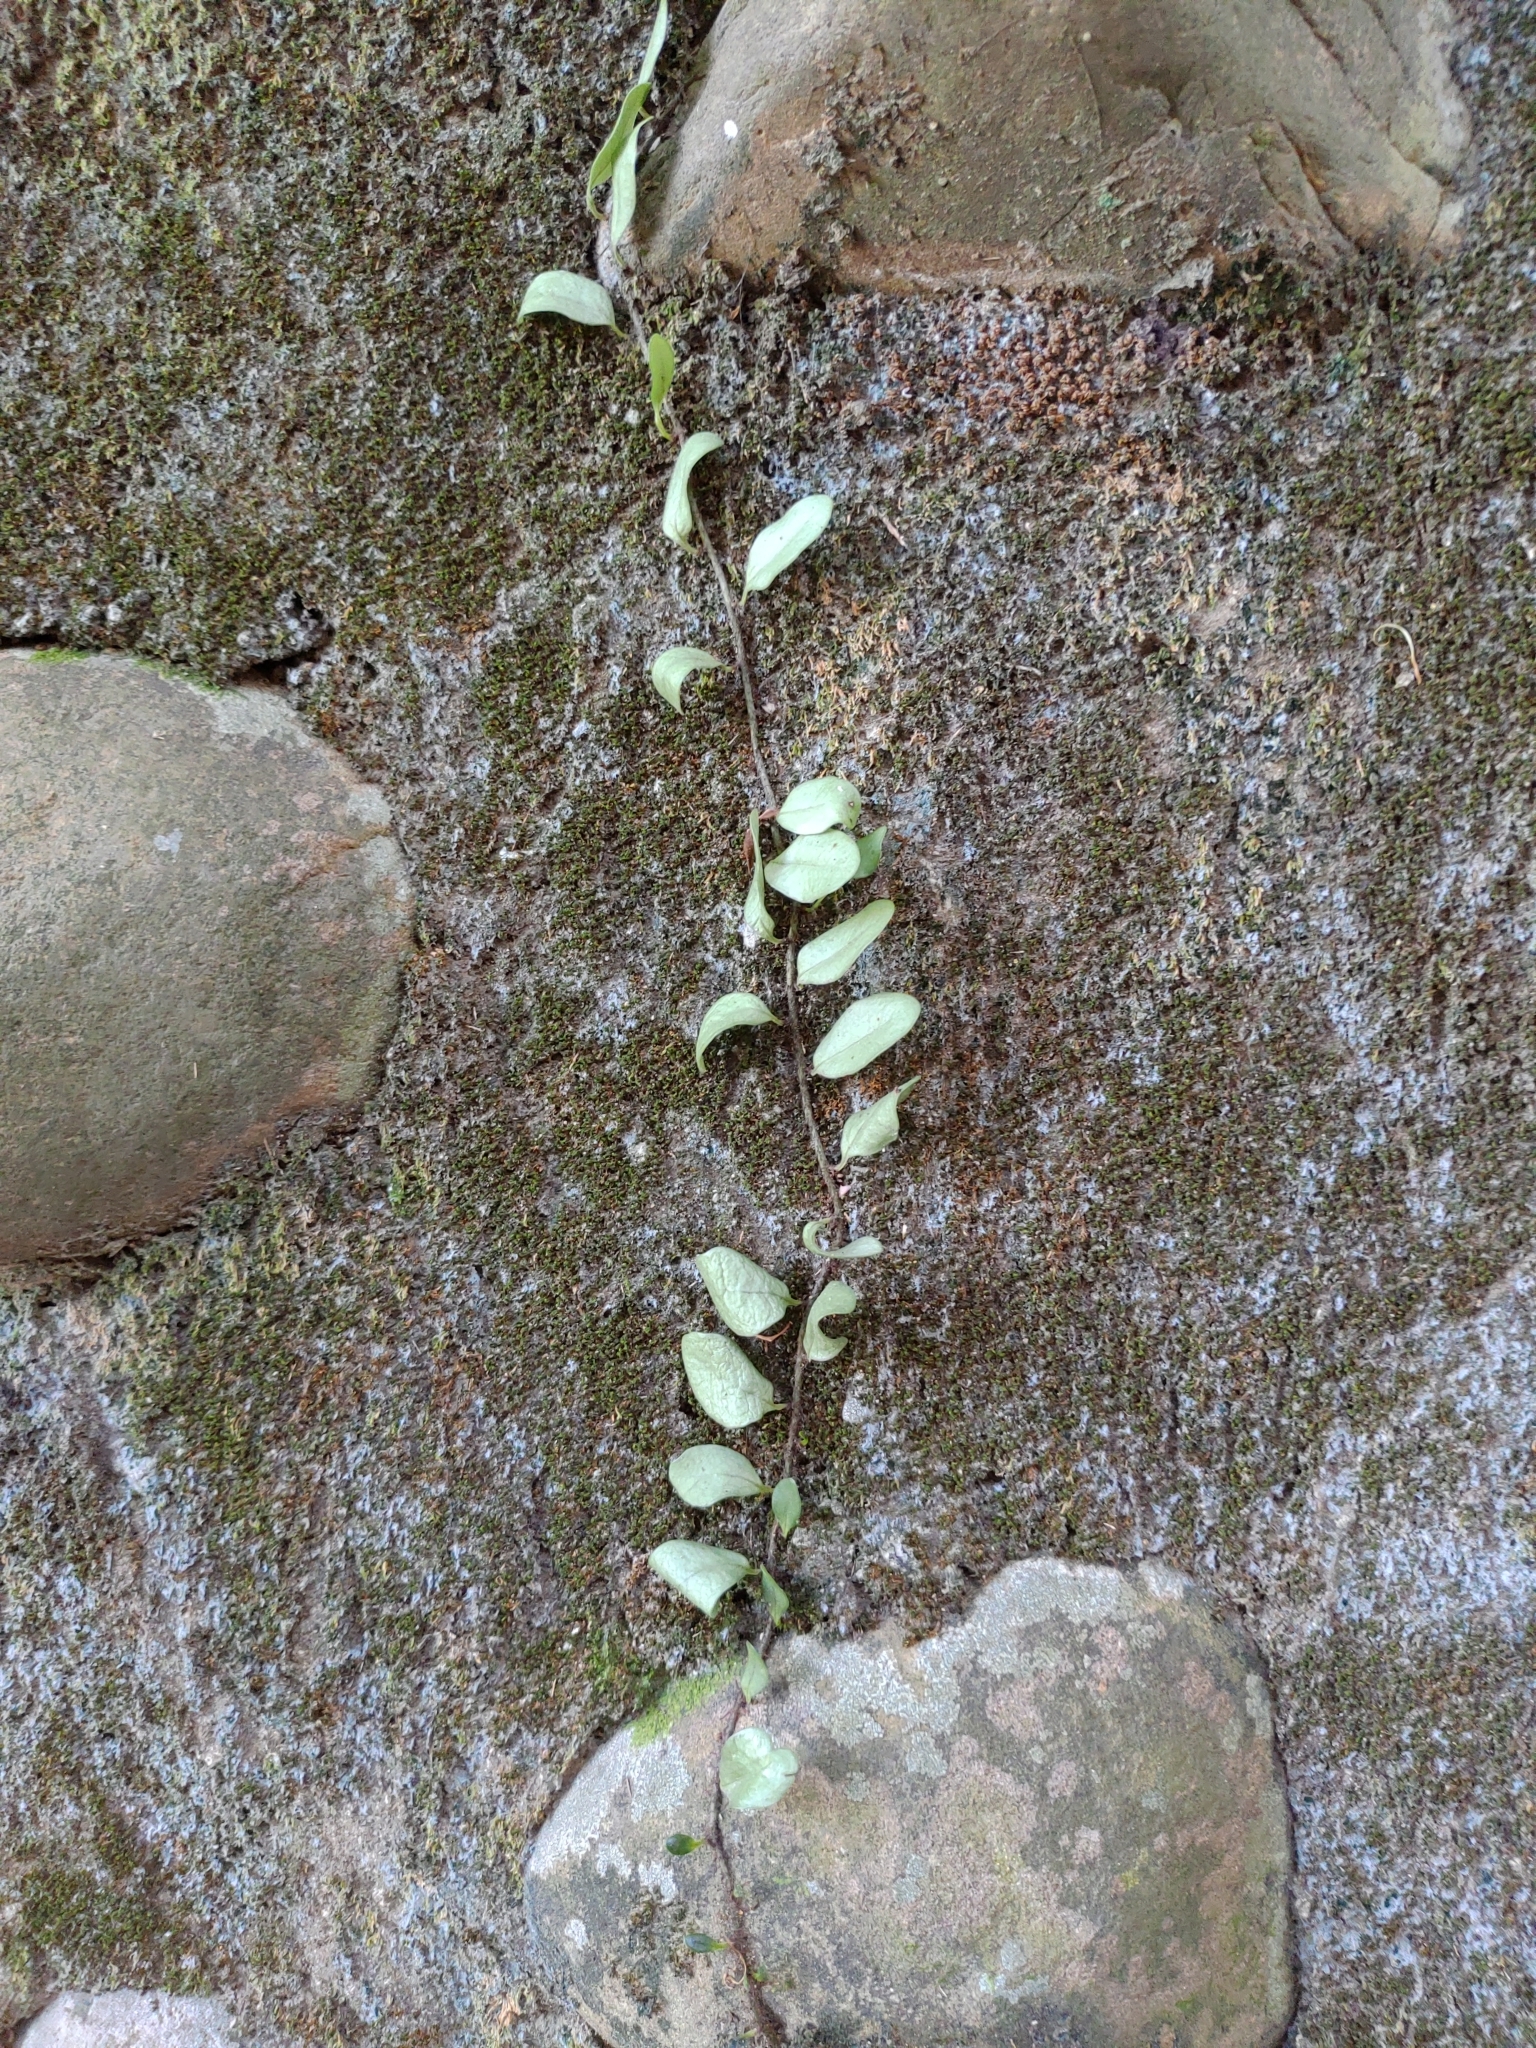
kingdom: Plantae
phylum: Tracheophyta
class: Polypodiopsida
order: Polypodiales
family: Polypodiaceae
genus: Lepisorus
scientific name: Lepisorus microphyllus
